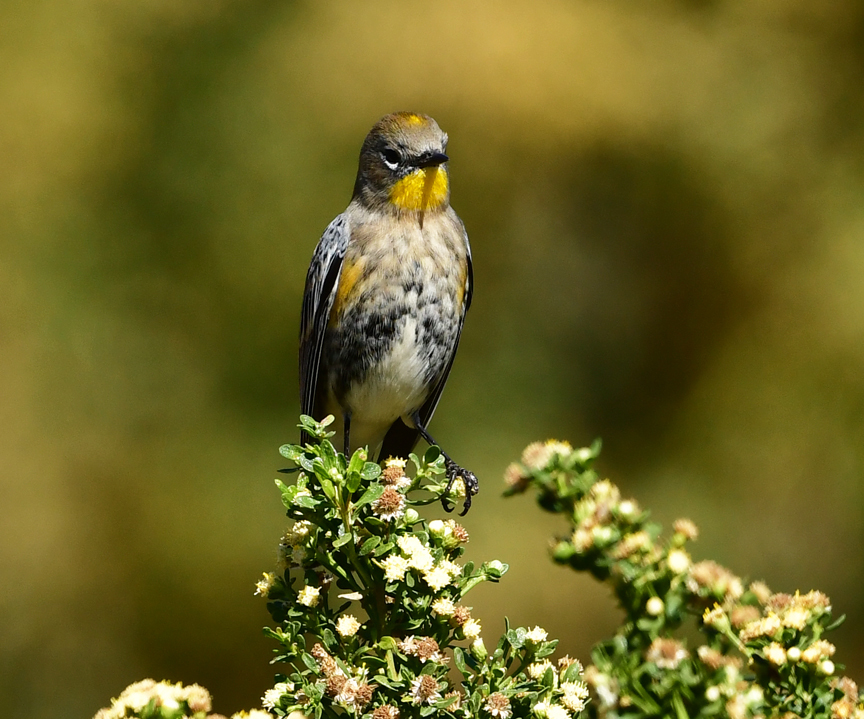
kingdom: Animalia
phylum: Chordata
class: Aves
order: Passeriformes
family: Parulidae
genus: Setophaga
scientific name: Setophaga coronata
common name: Myrtle warbler
